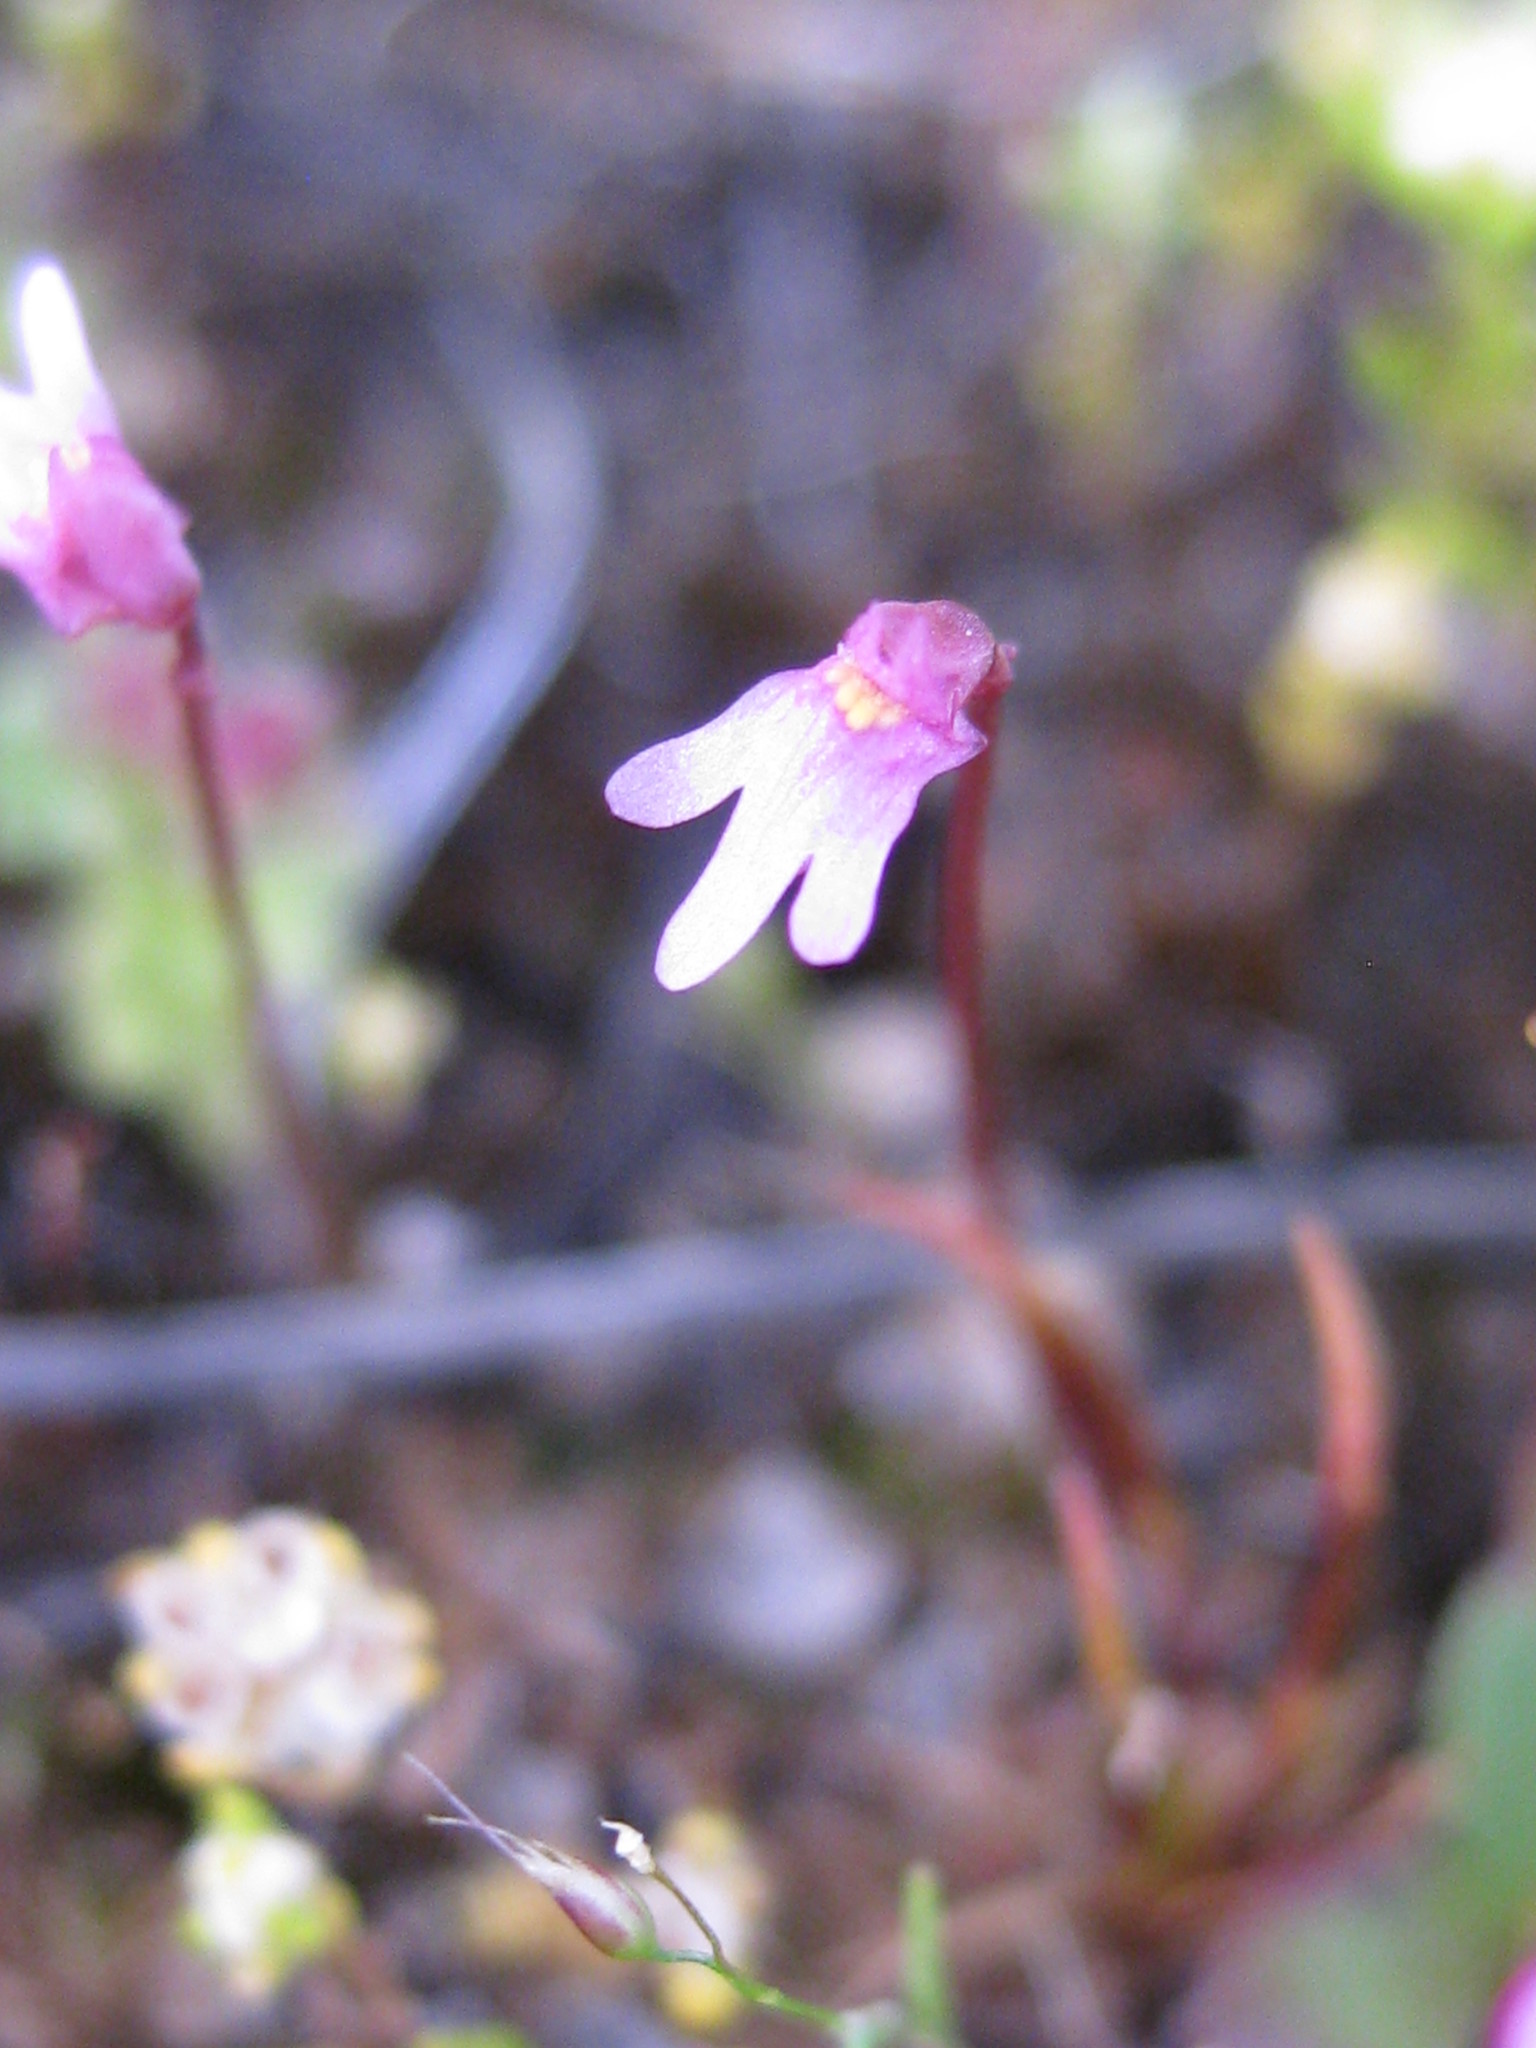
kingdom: Plantae
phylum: Tracheophyta
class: Magnoliopsida
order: Lamiales
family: Lentibulariaceae
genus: Utricularia
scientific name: Utricularia tenella
